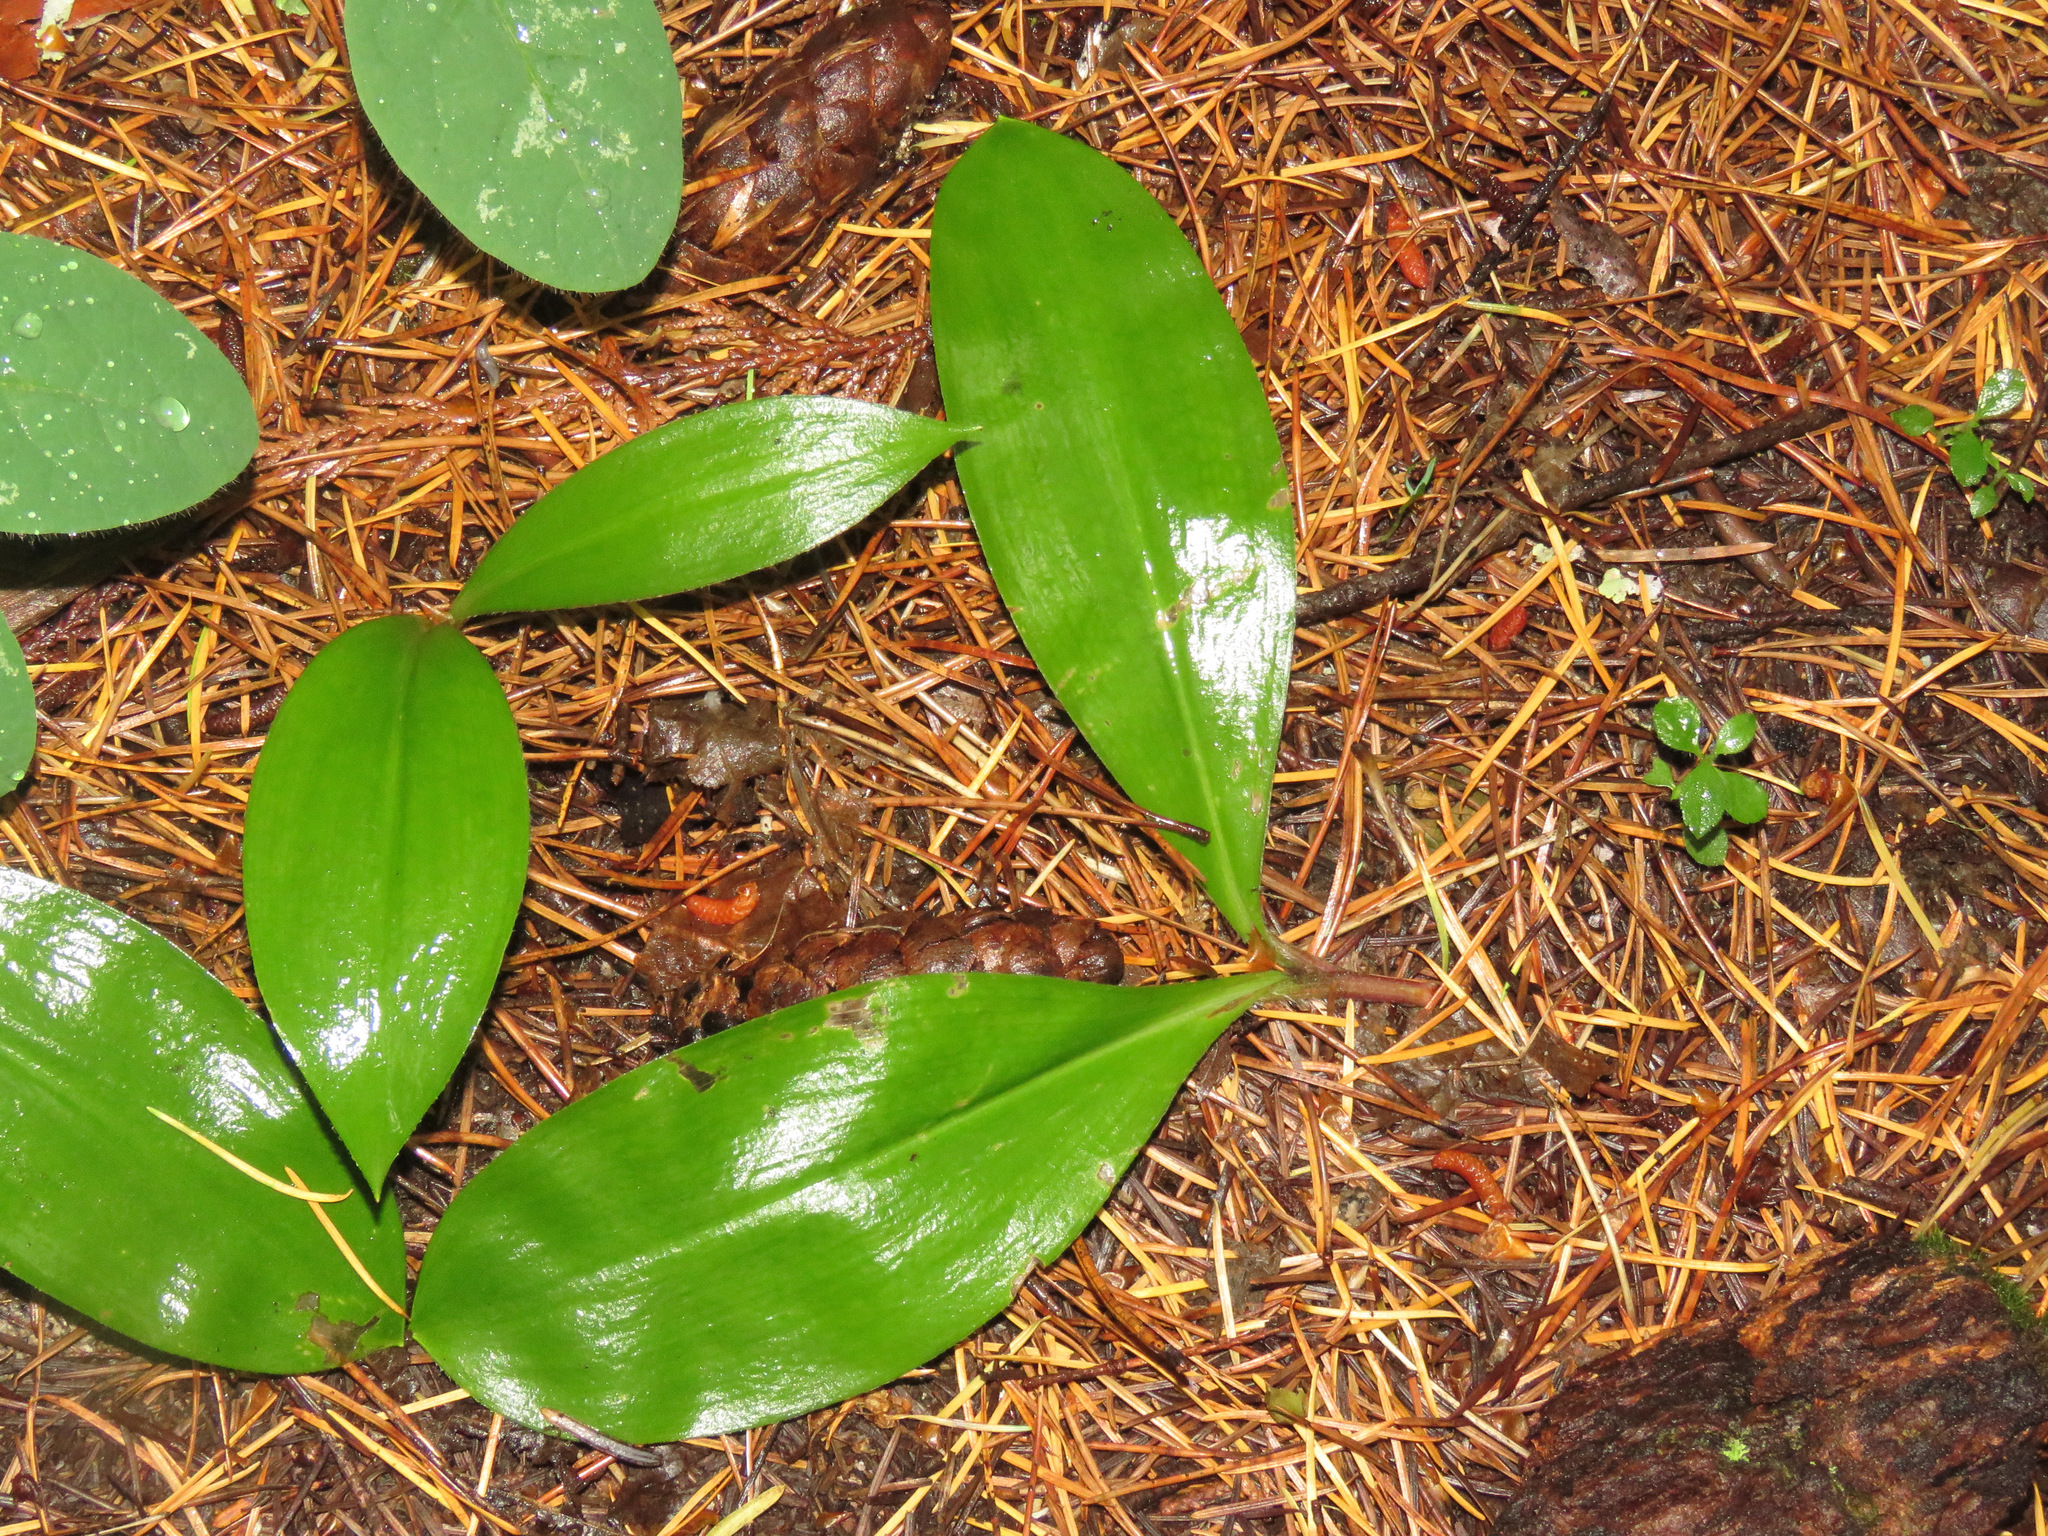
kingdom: Plantae
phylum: Tracheophyta
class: Liliopsida
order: Liliales
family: Liliaceae
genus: Clintonia
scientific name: Clintonia uniflora
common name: Queen's cup
